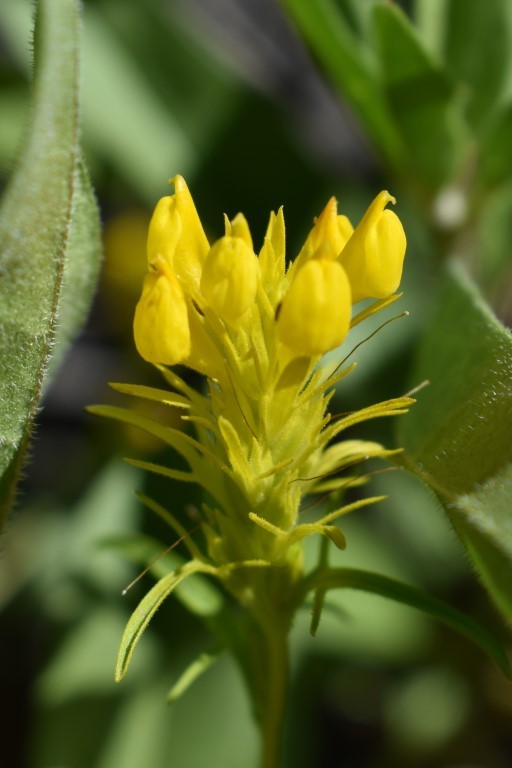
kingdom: Plantae
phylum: Tracheophyta
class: Magnoliopsida
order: Lamiales
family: Orobanchaceae
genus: Orthocarpus
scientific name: Orthocarpus tolmiei
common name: Tolmie's owl-clover
